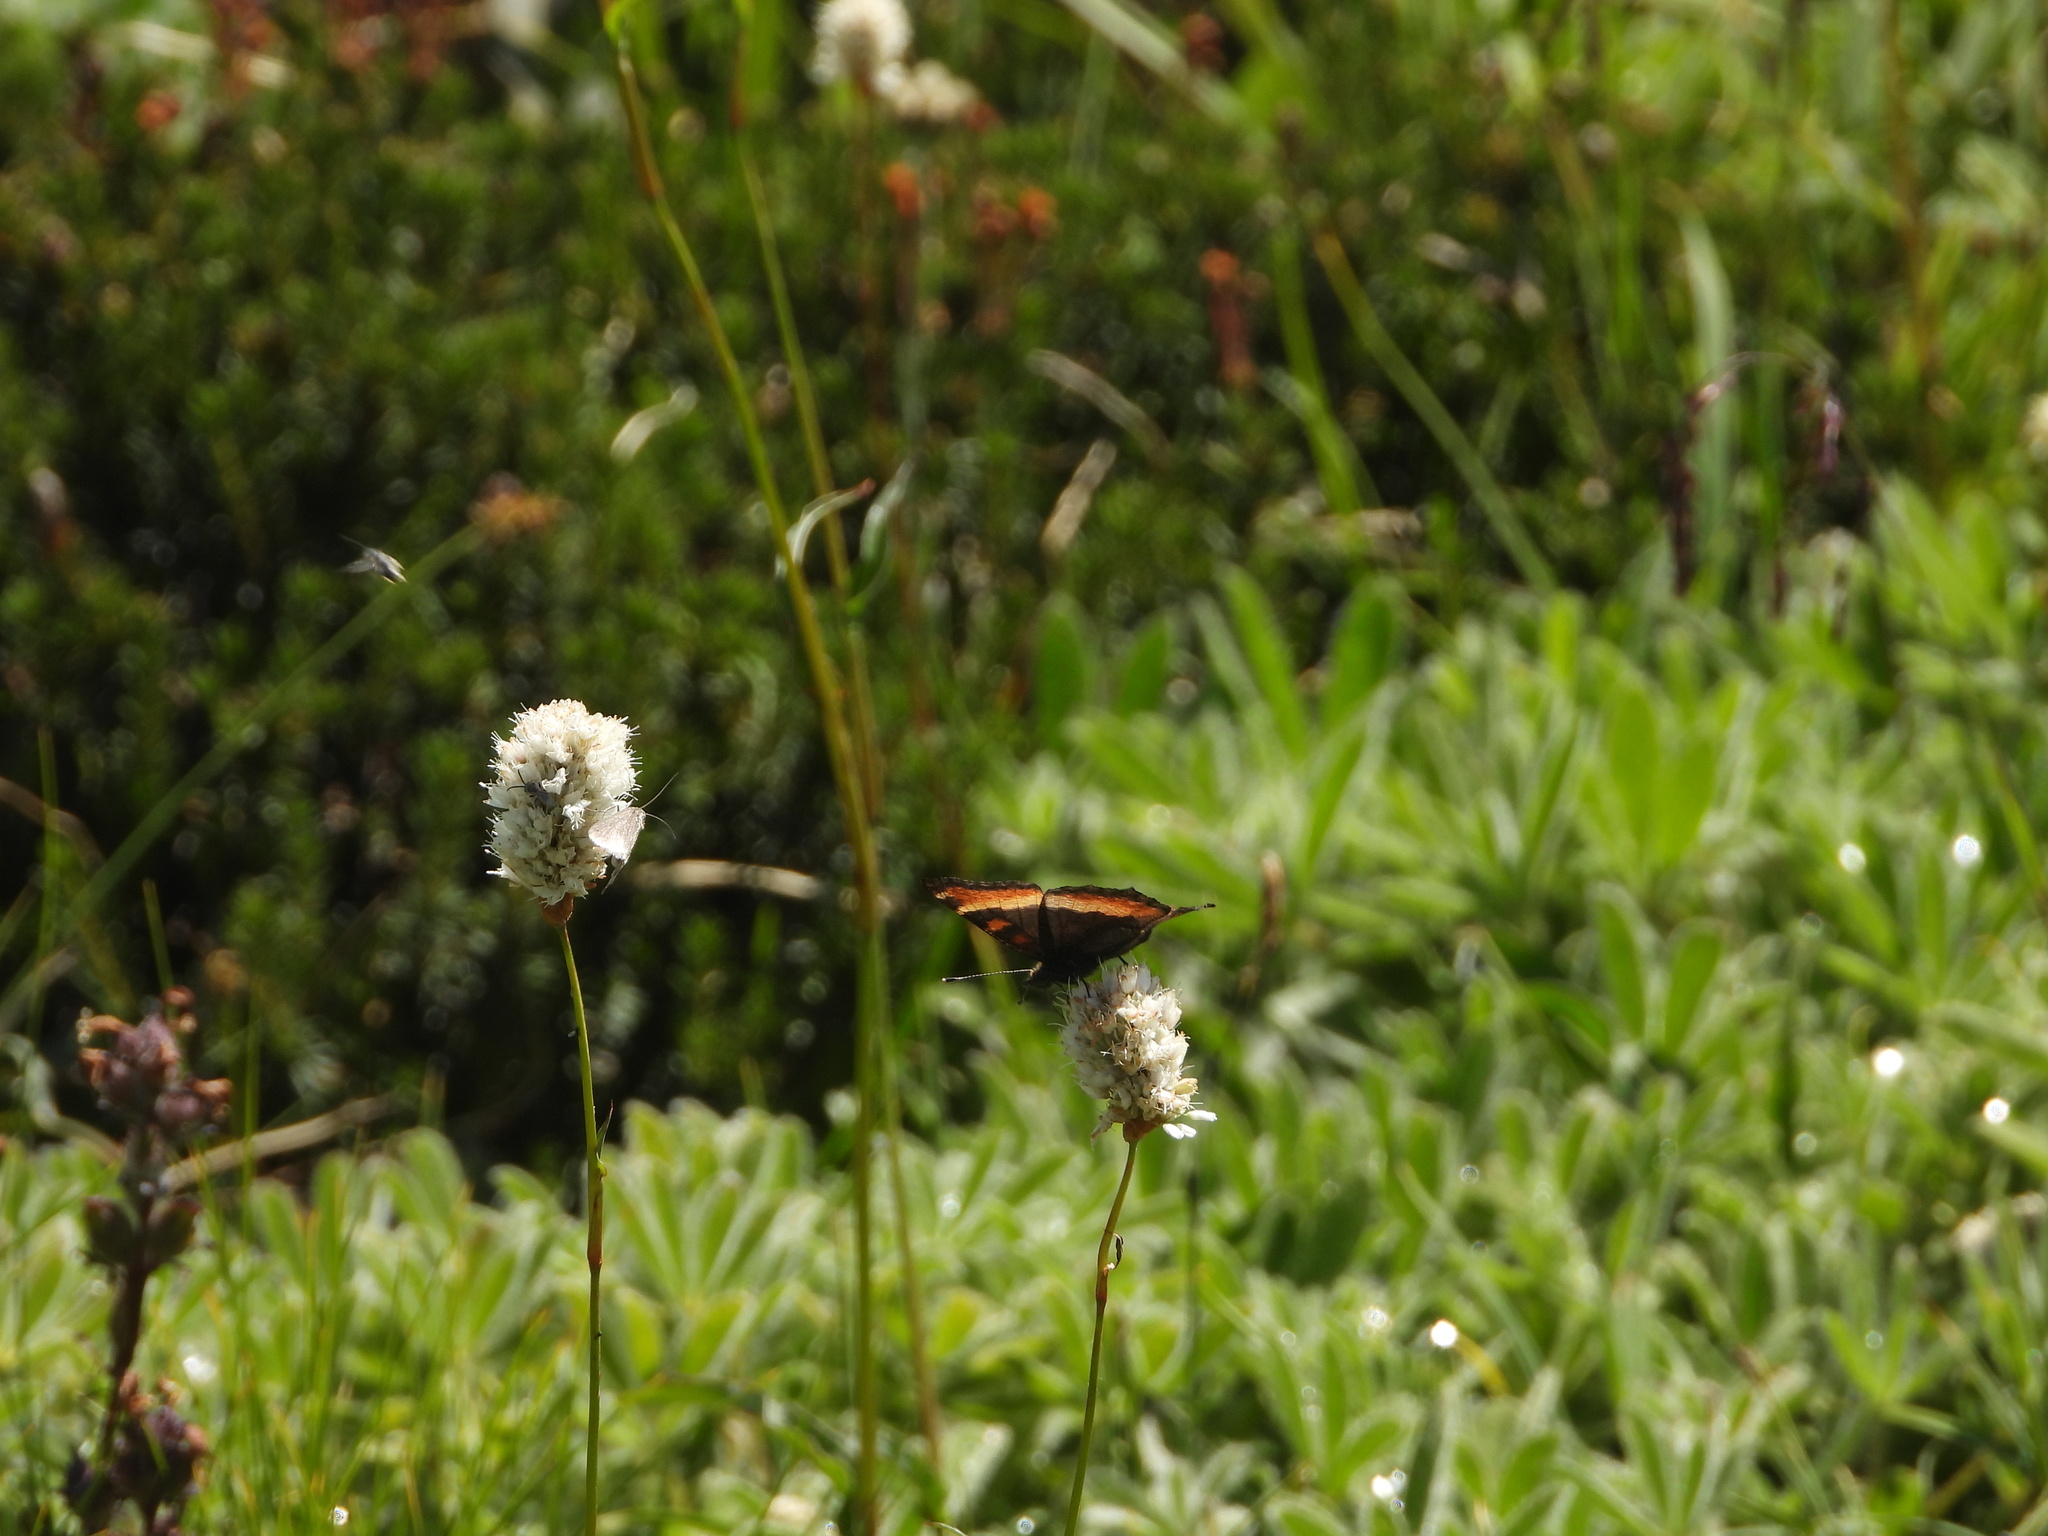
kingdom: Animalia
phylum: Arthropoda
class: Insecta
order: Lepidoptera
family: Nymphalidae
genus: Aglais
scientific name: Aglais milberti
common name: Milbert's tortoiseshell
